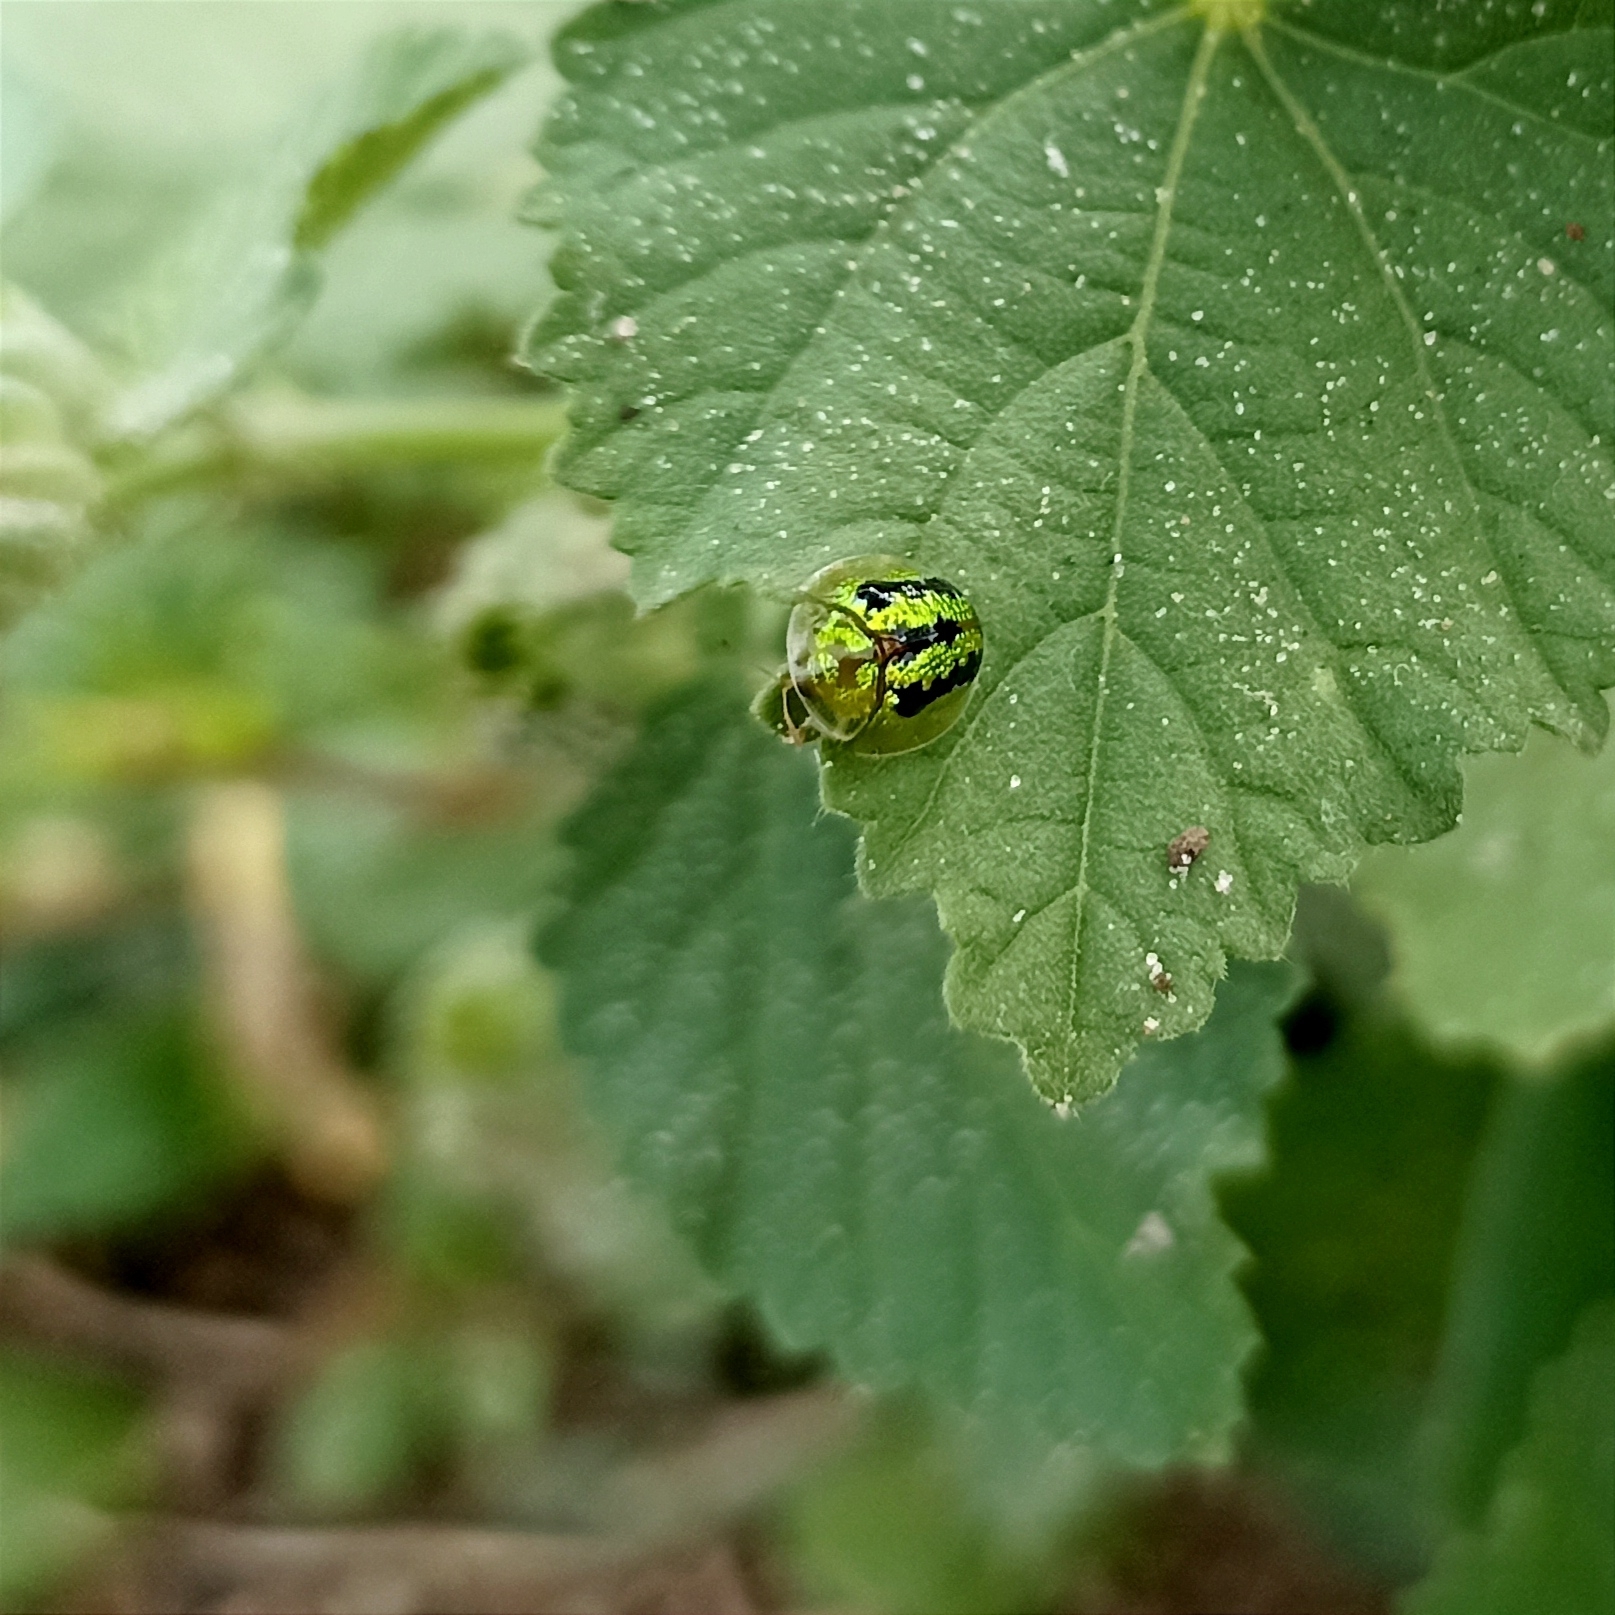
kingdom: Animalia
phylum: Arthropoda
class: Insecta
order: Coleoptera
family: Chrysomelidae
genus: Cassida
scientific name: Cassida circumdata
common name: Tortoise beetle
